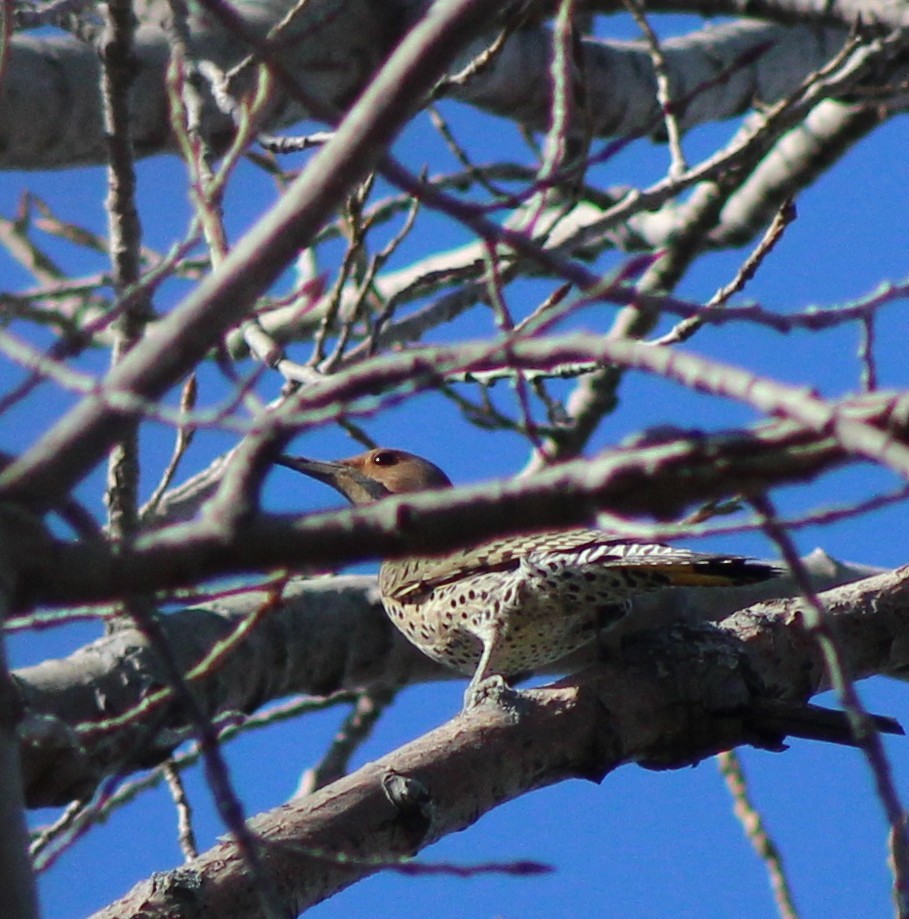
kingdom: Animalia
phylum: Chordata
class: Aves
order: Piciformes
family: Picidae
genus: Colaptes
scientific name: Colaptes auratus
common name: Northern flicker
